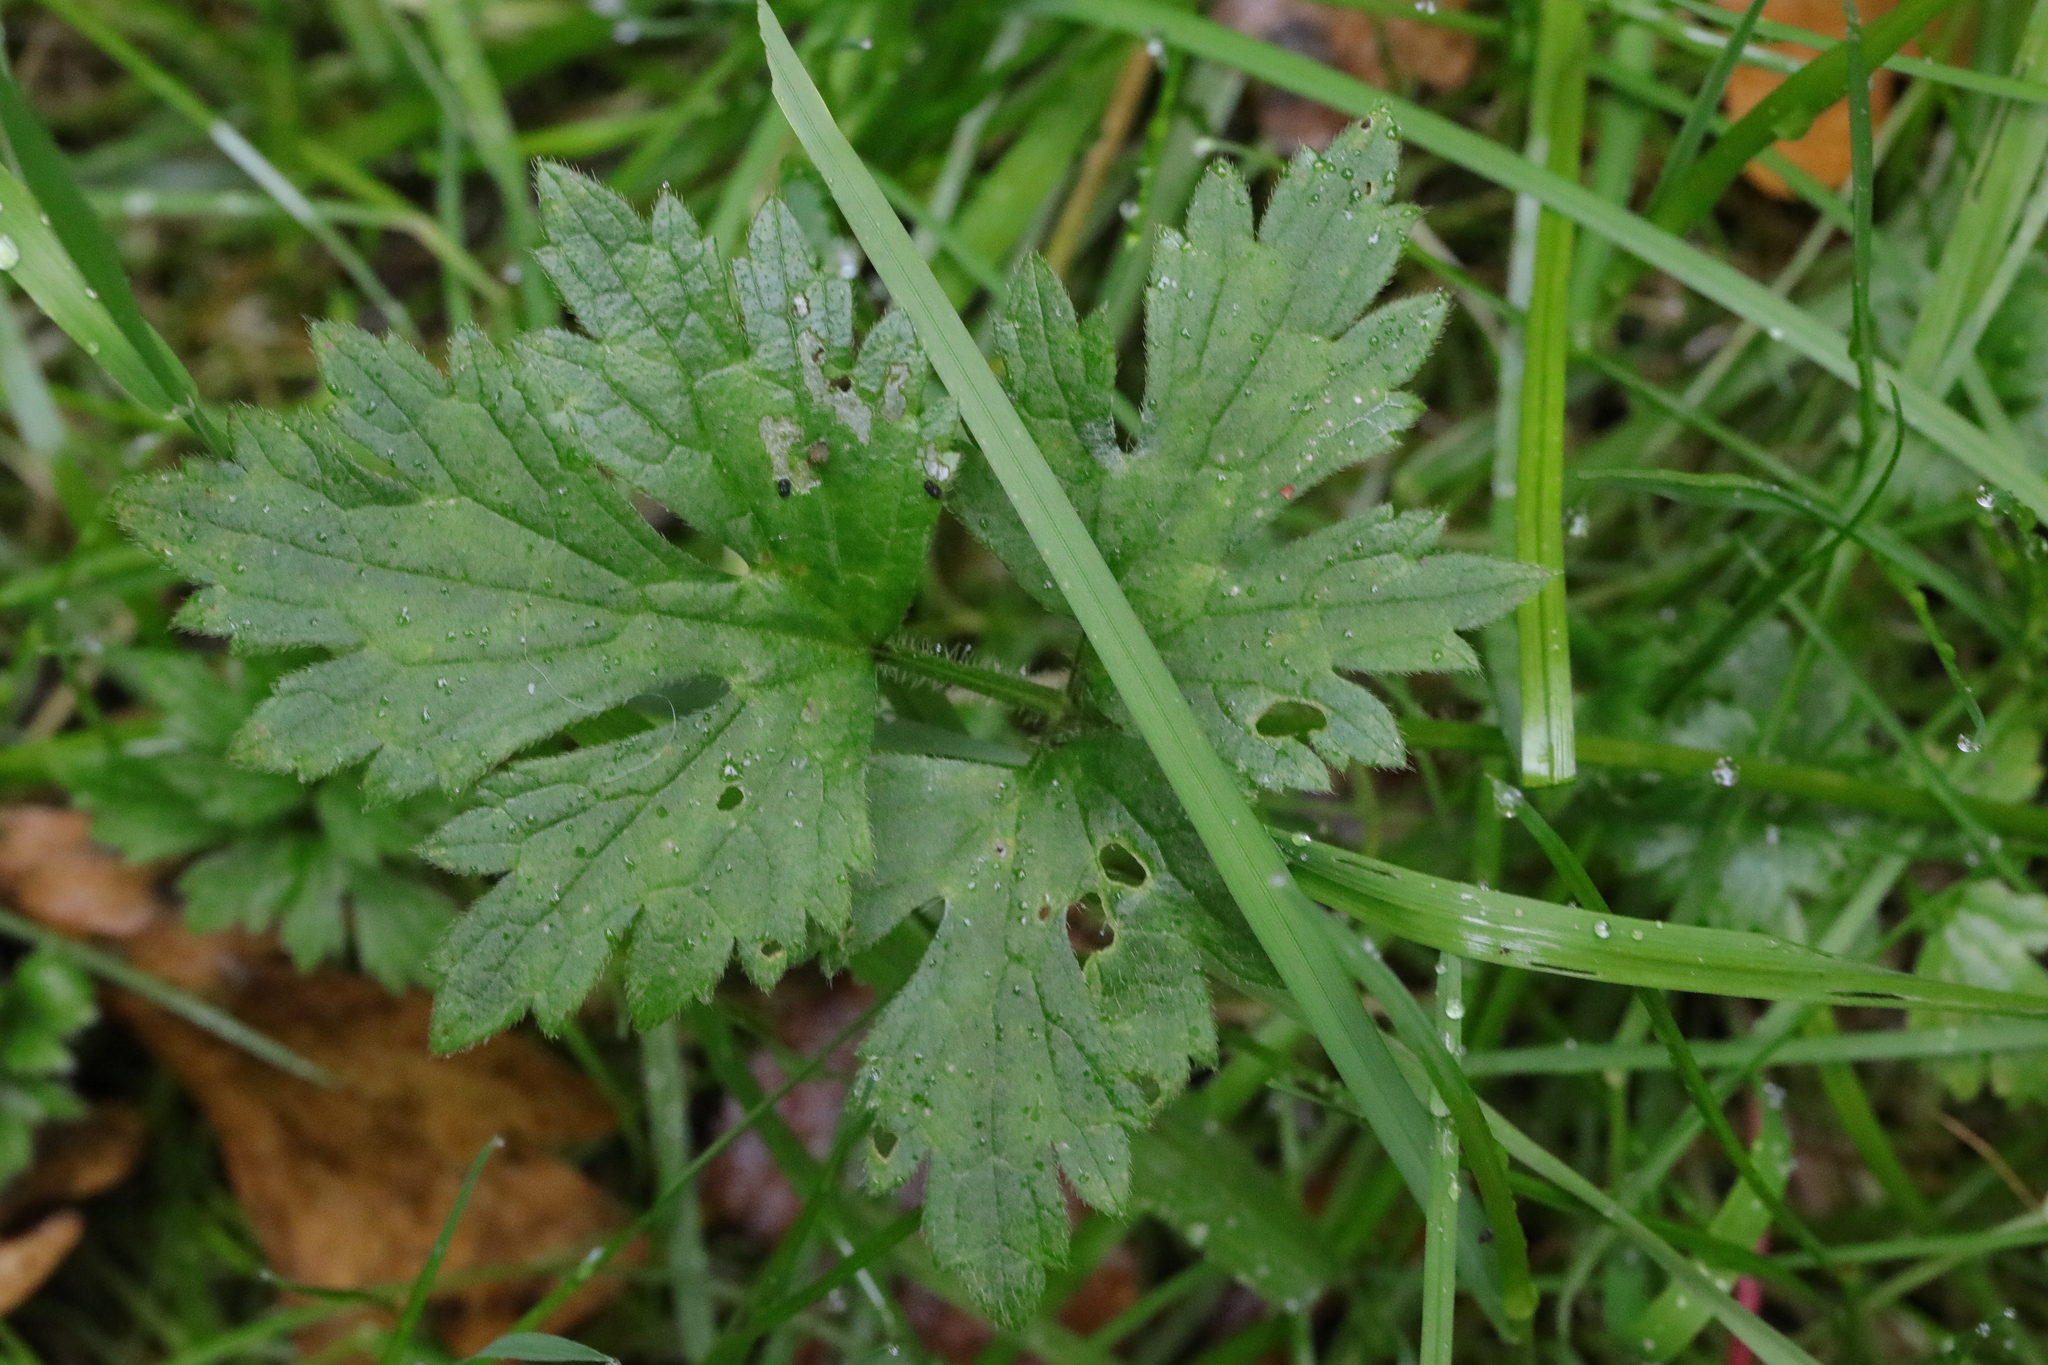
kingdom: Plantae
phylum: Tracheophyta
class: Magnoliopsida
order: Ranunculales
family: Ranunculaceae
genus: Ranunculus
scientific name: Ranunculus repens
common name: Creeping buttercup
